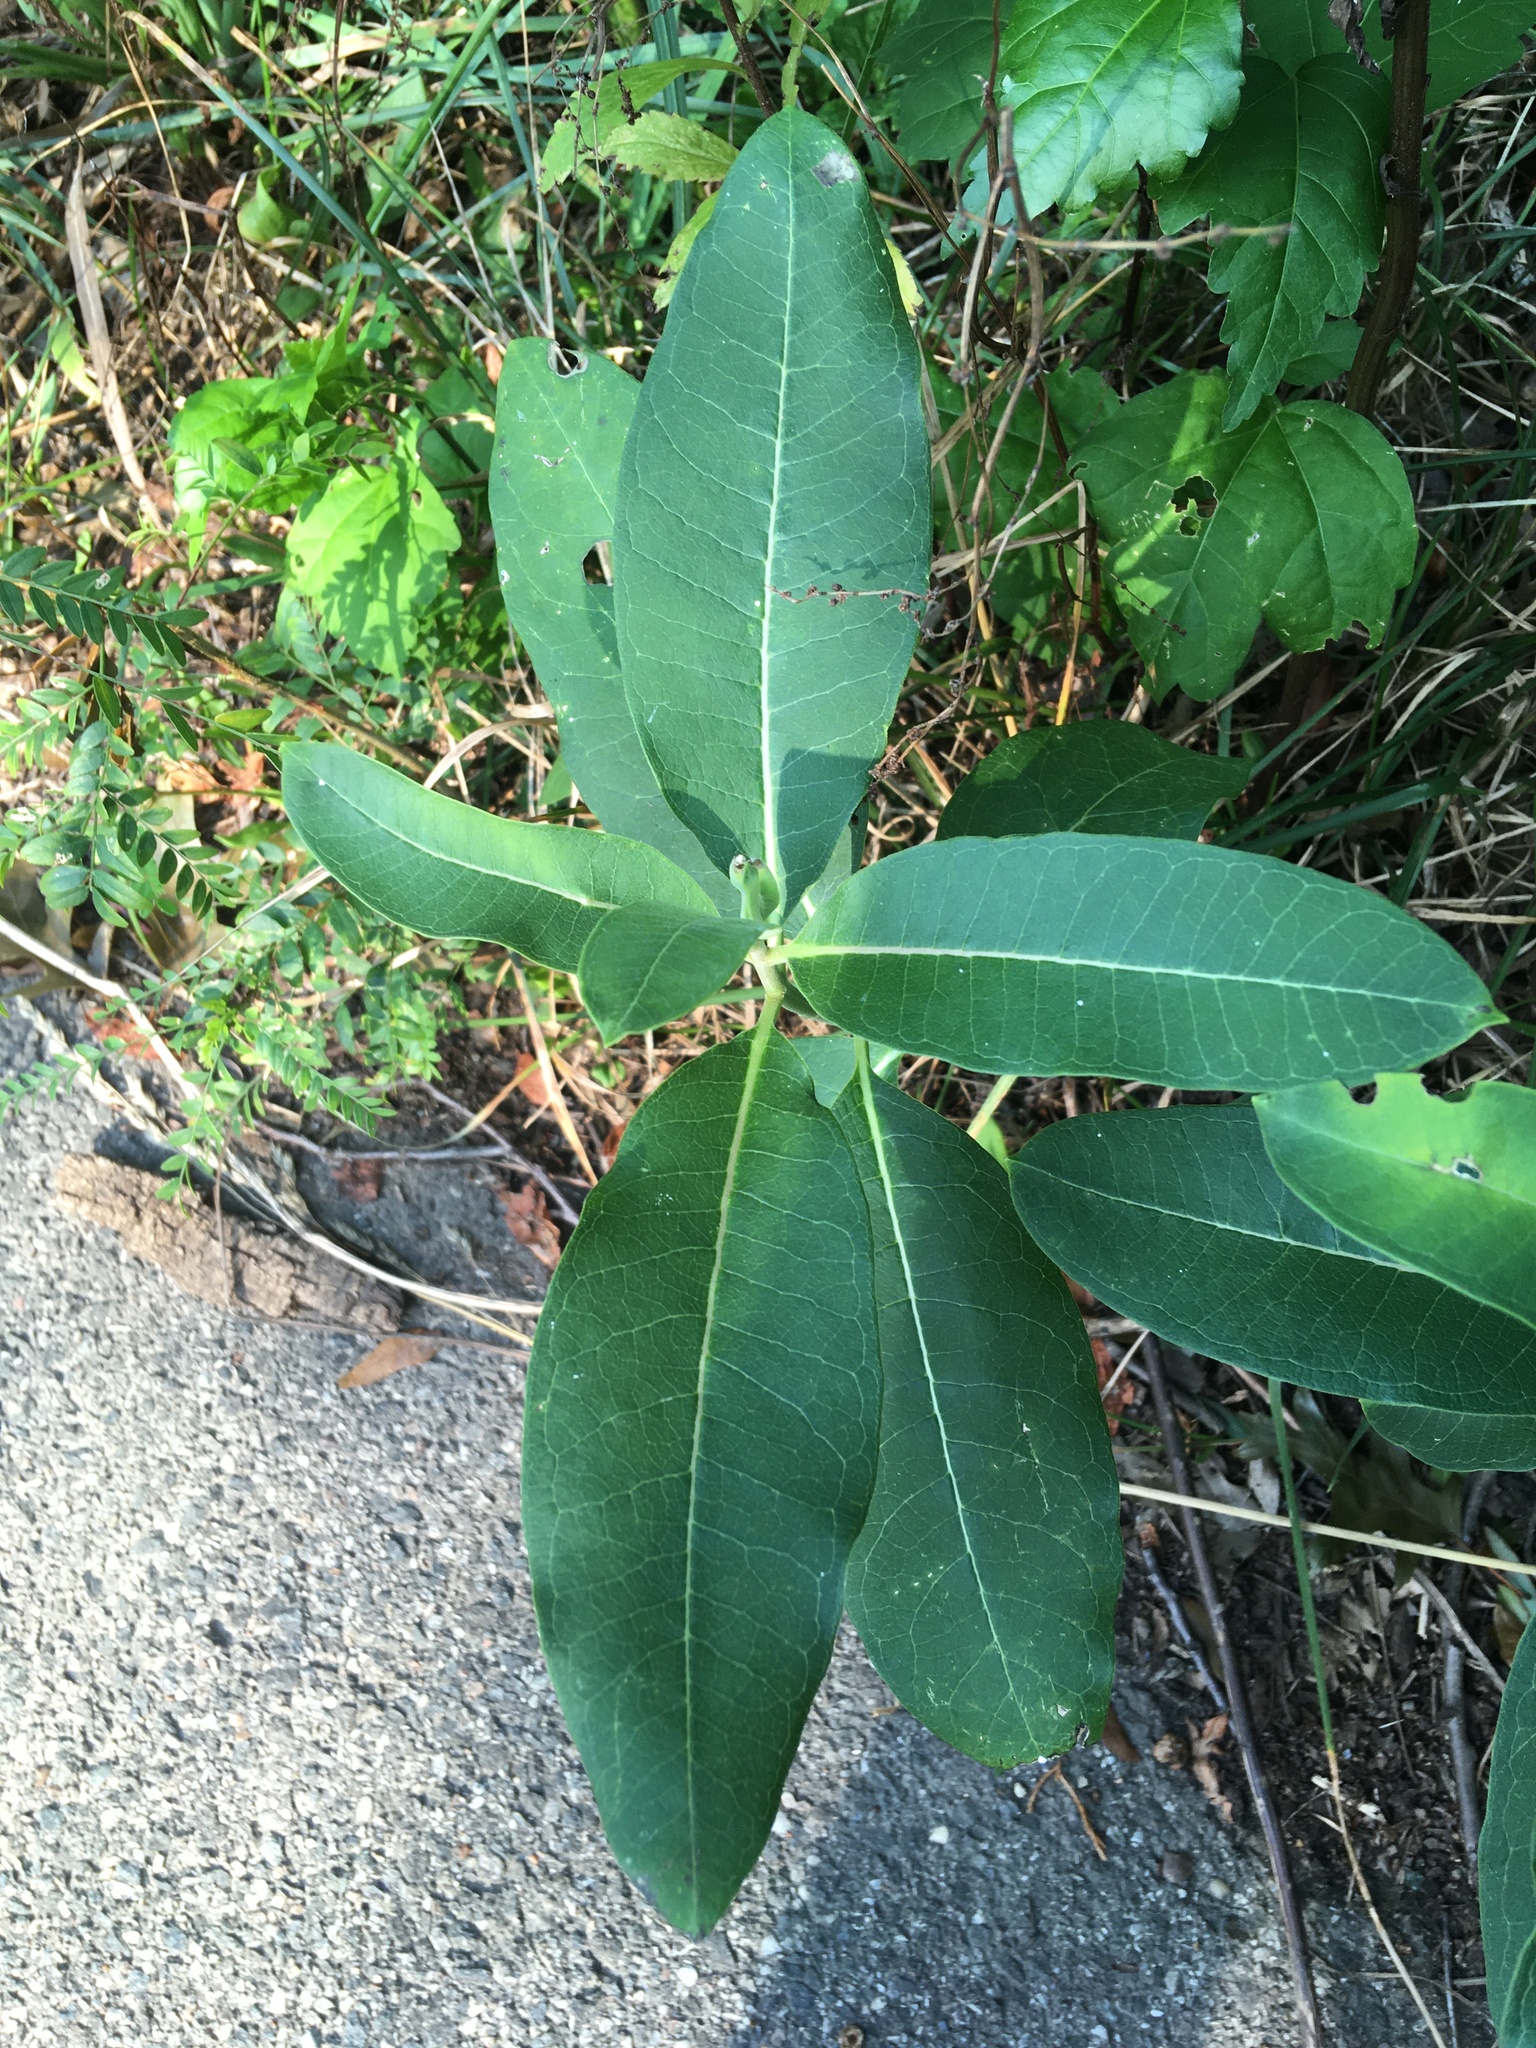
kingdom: Plantae
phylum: Tracheophyta
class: Magnoliopsida
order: Gentianales
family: Apocynaceae
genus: Asclepias
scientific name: Asclepias syriaca
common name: Common milkweed
